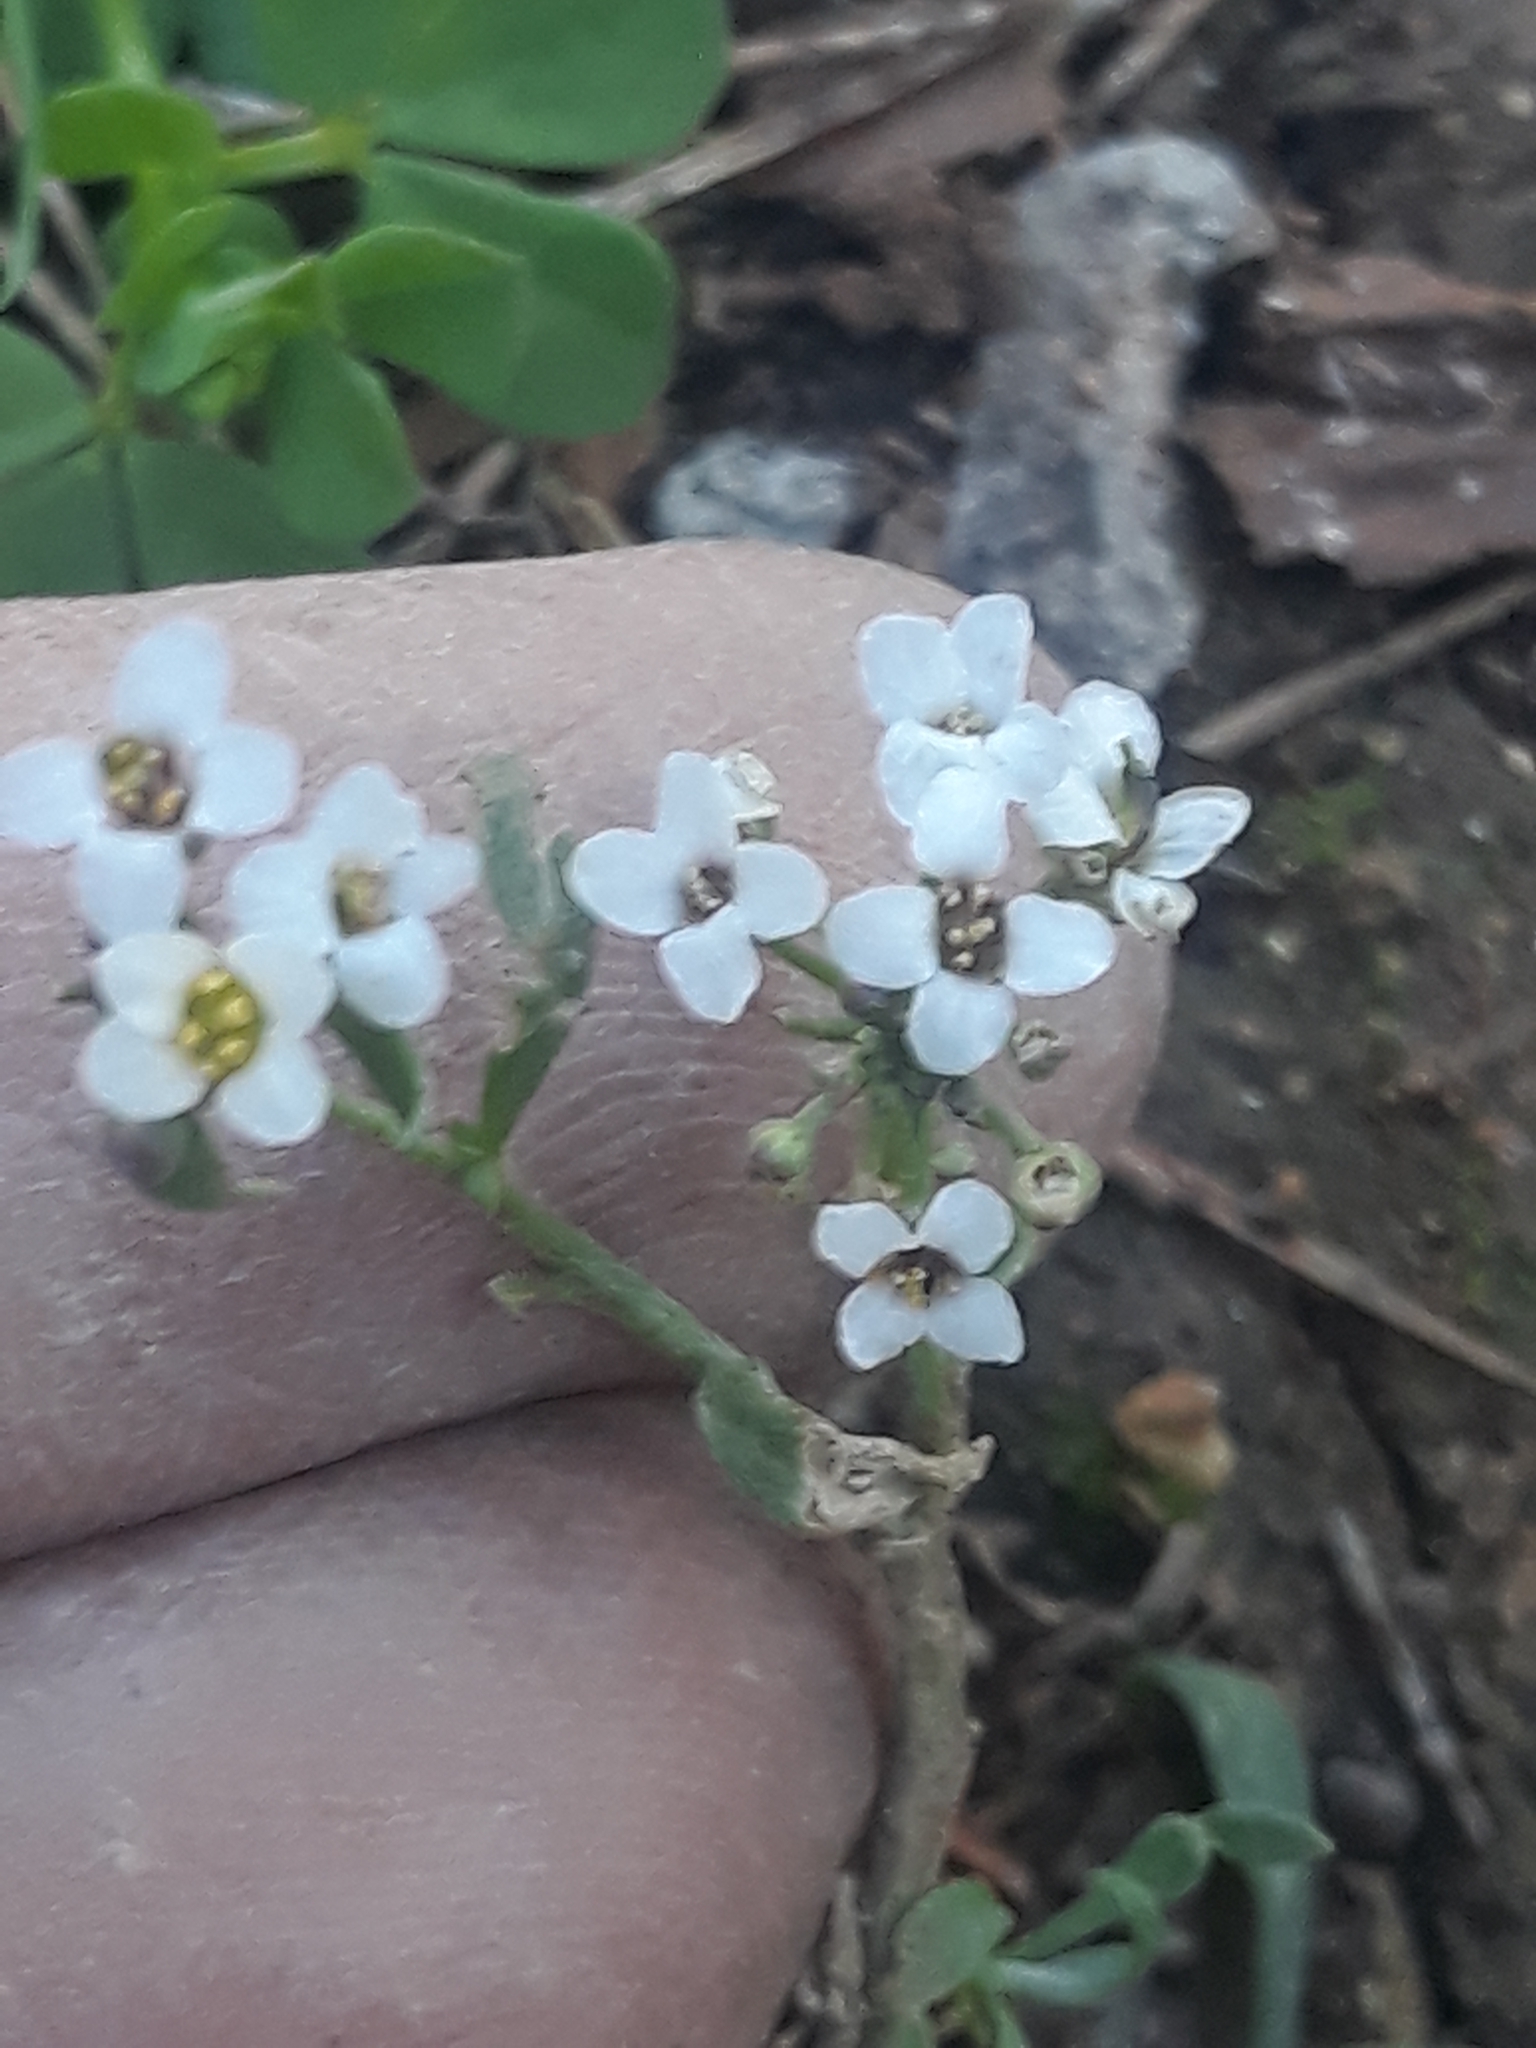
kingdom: Plantae
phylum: Tracheophyta
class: Magnoliopsida
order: Brassicales
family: Brassicaceae
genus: Lobularia
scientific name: Lobularia maritima
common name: Sweet alison
